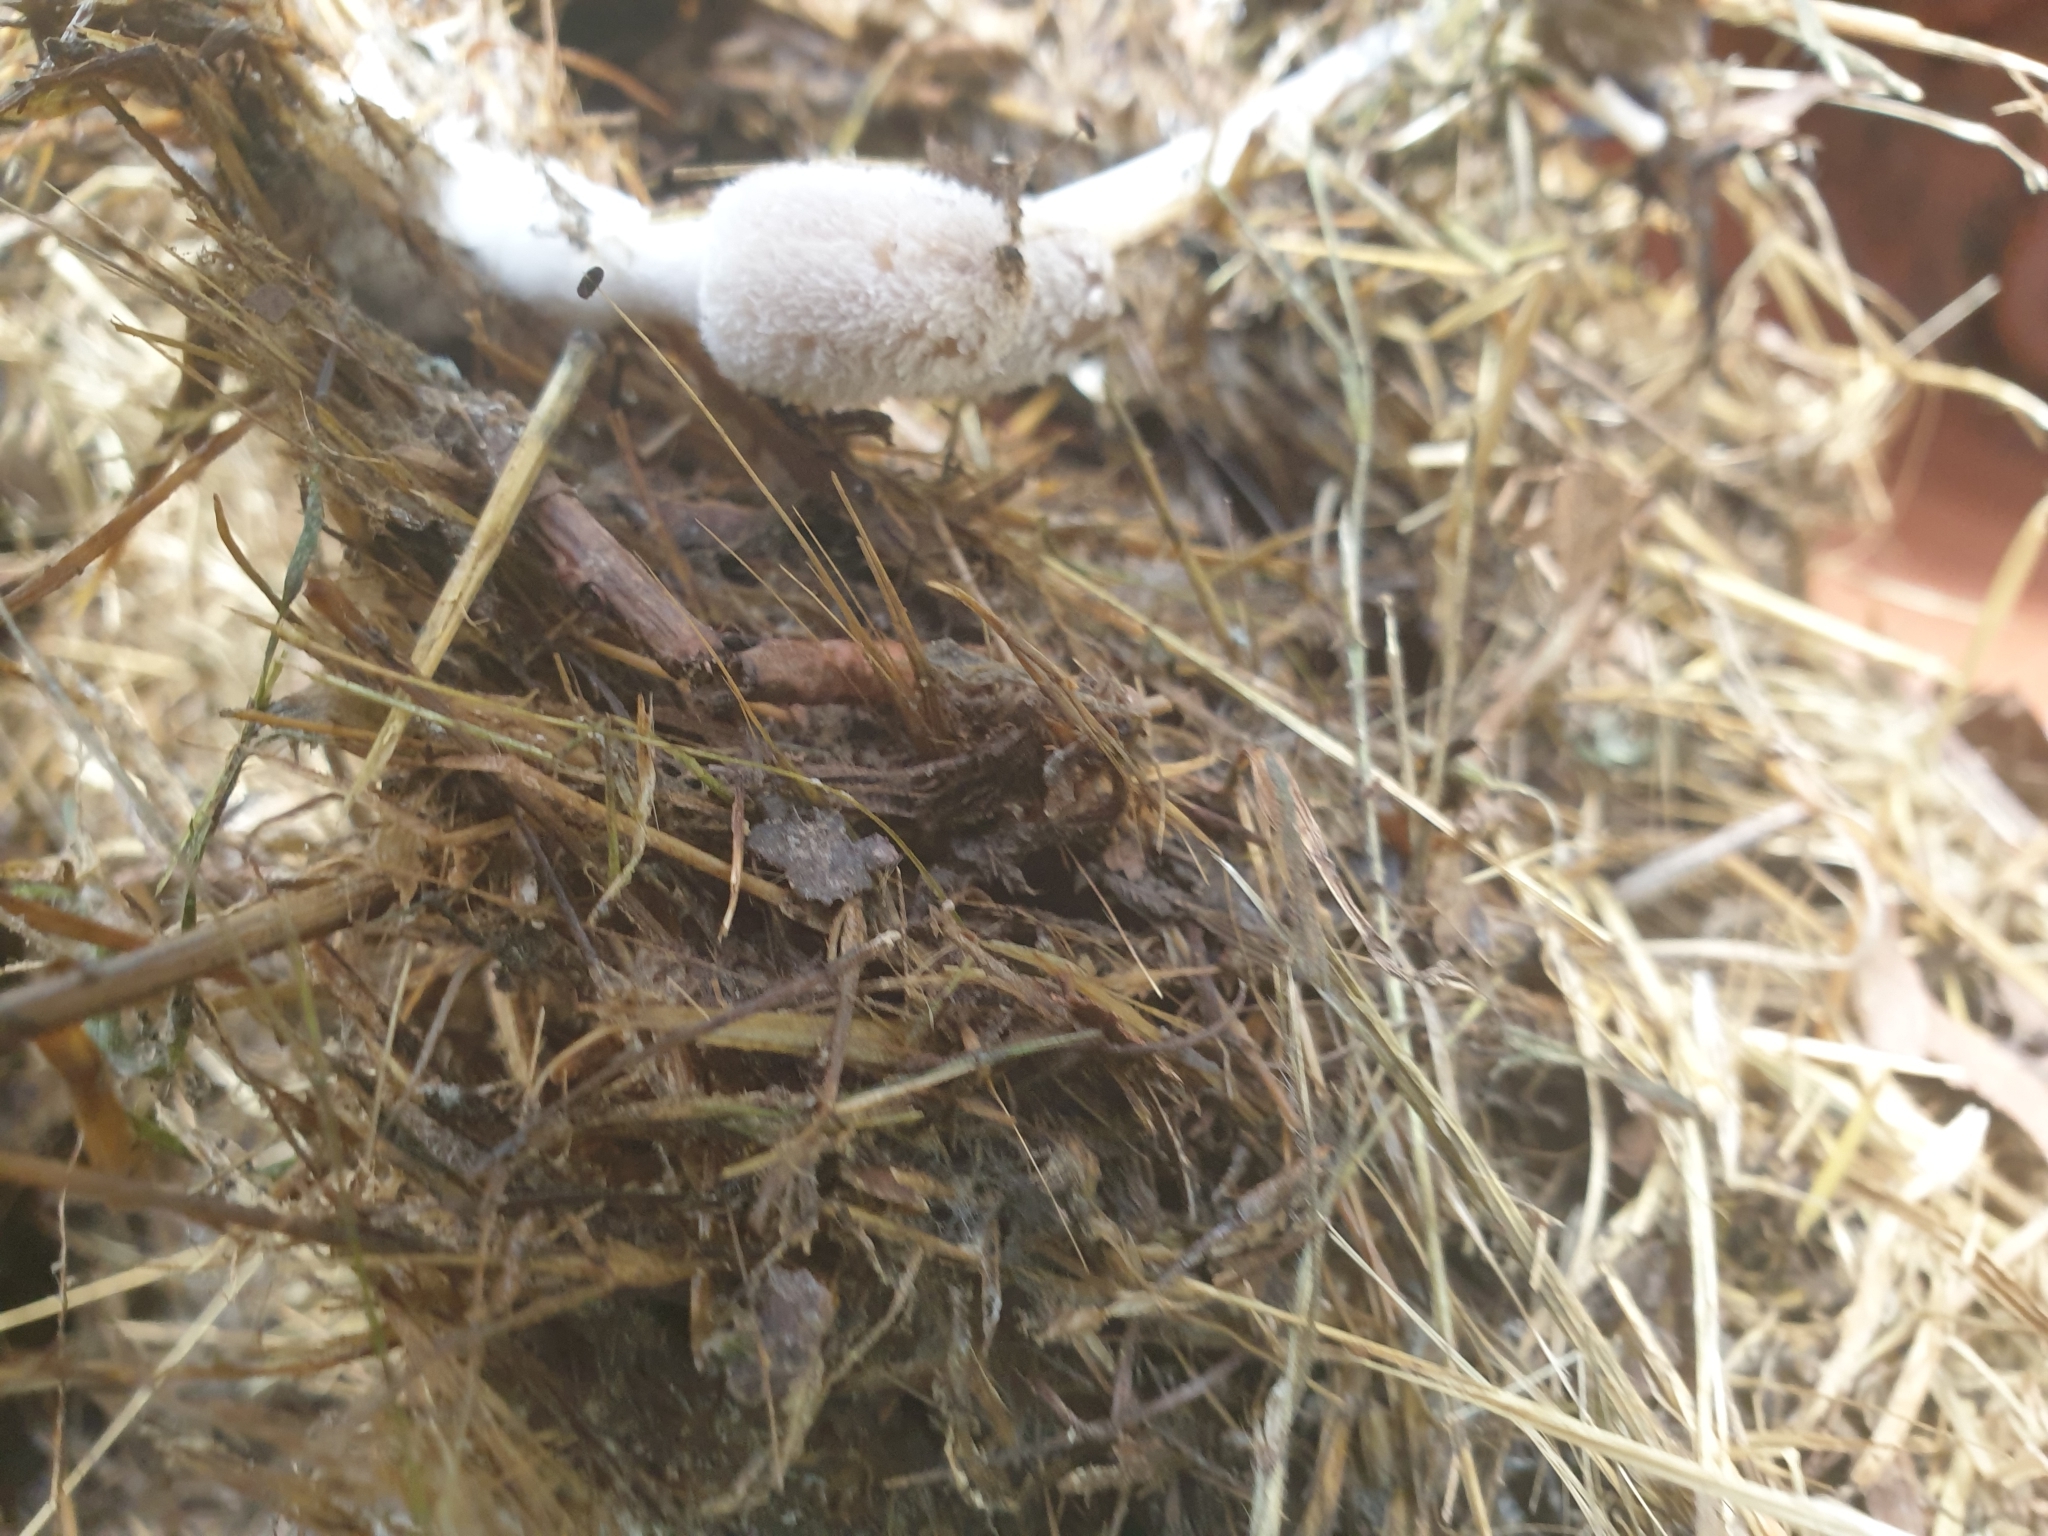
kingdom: Fungi
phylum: Basidiomycota
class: Agaricomycetes
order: Agaricales
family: Agaricaceae
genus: Coprinus
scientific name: Coprinus comatus
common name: Lawyer's wig
